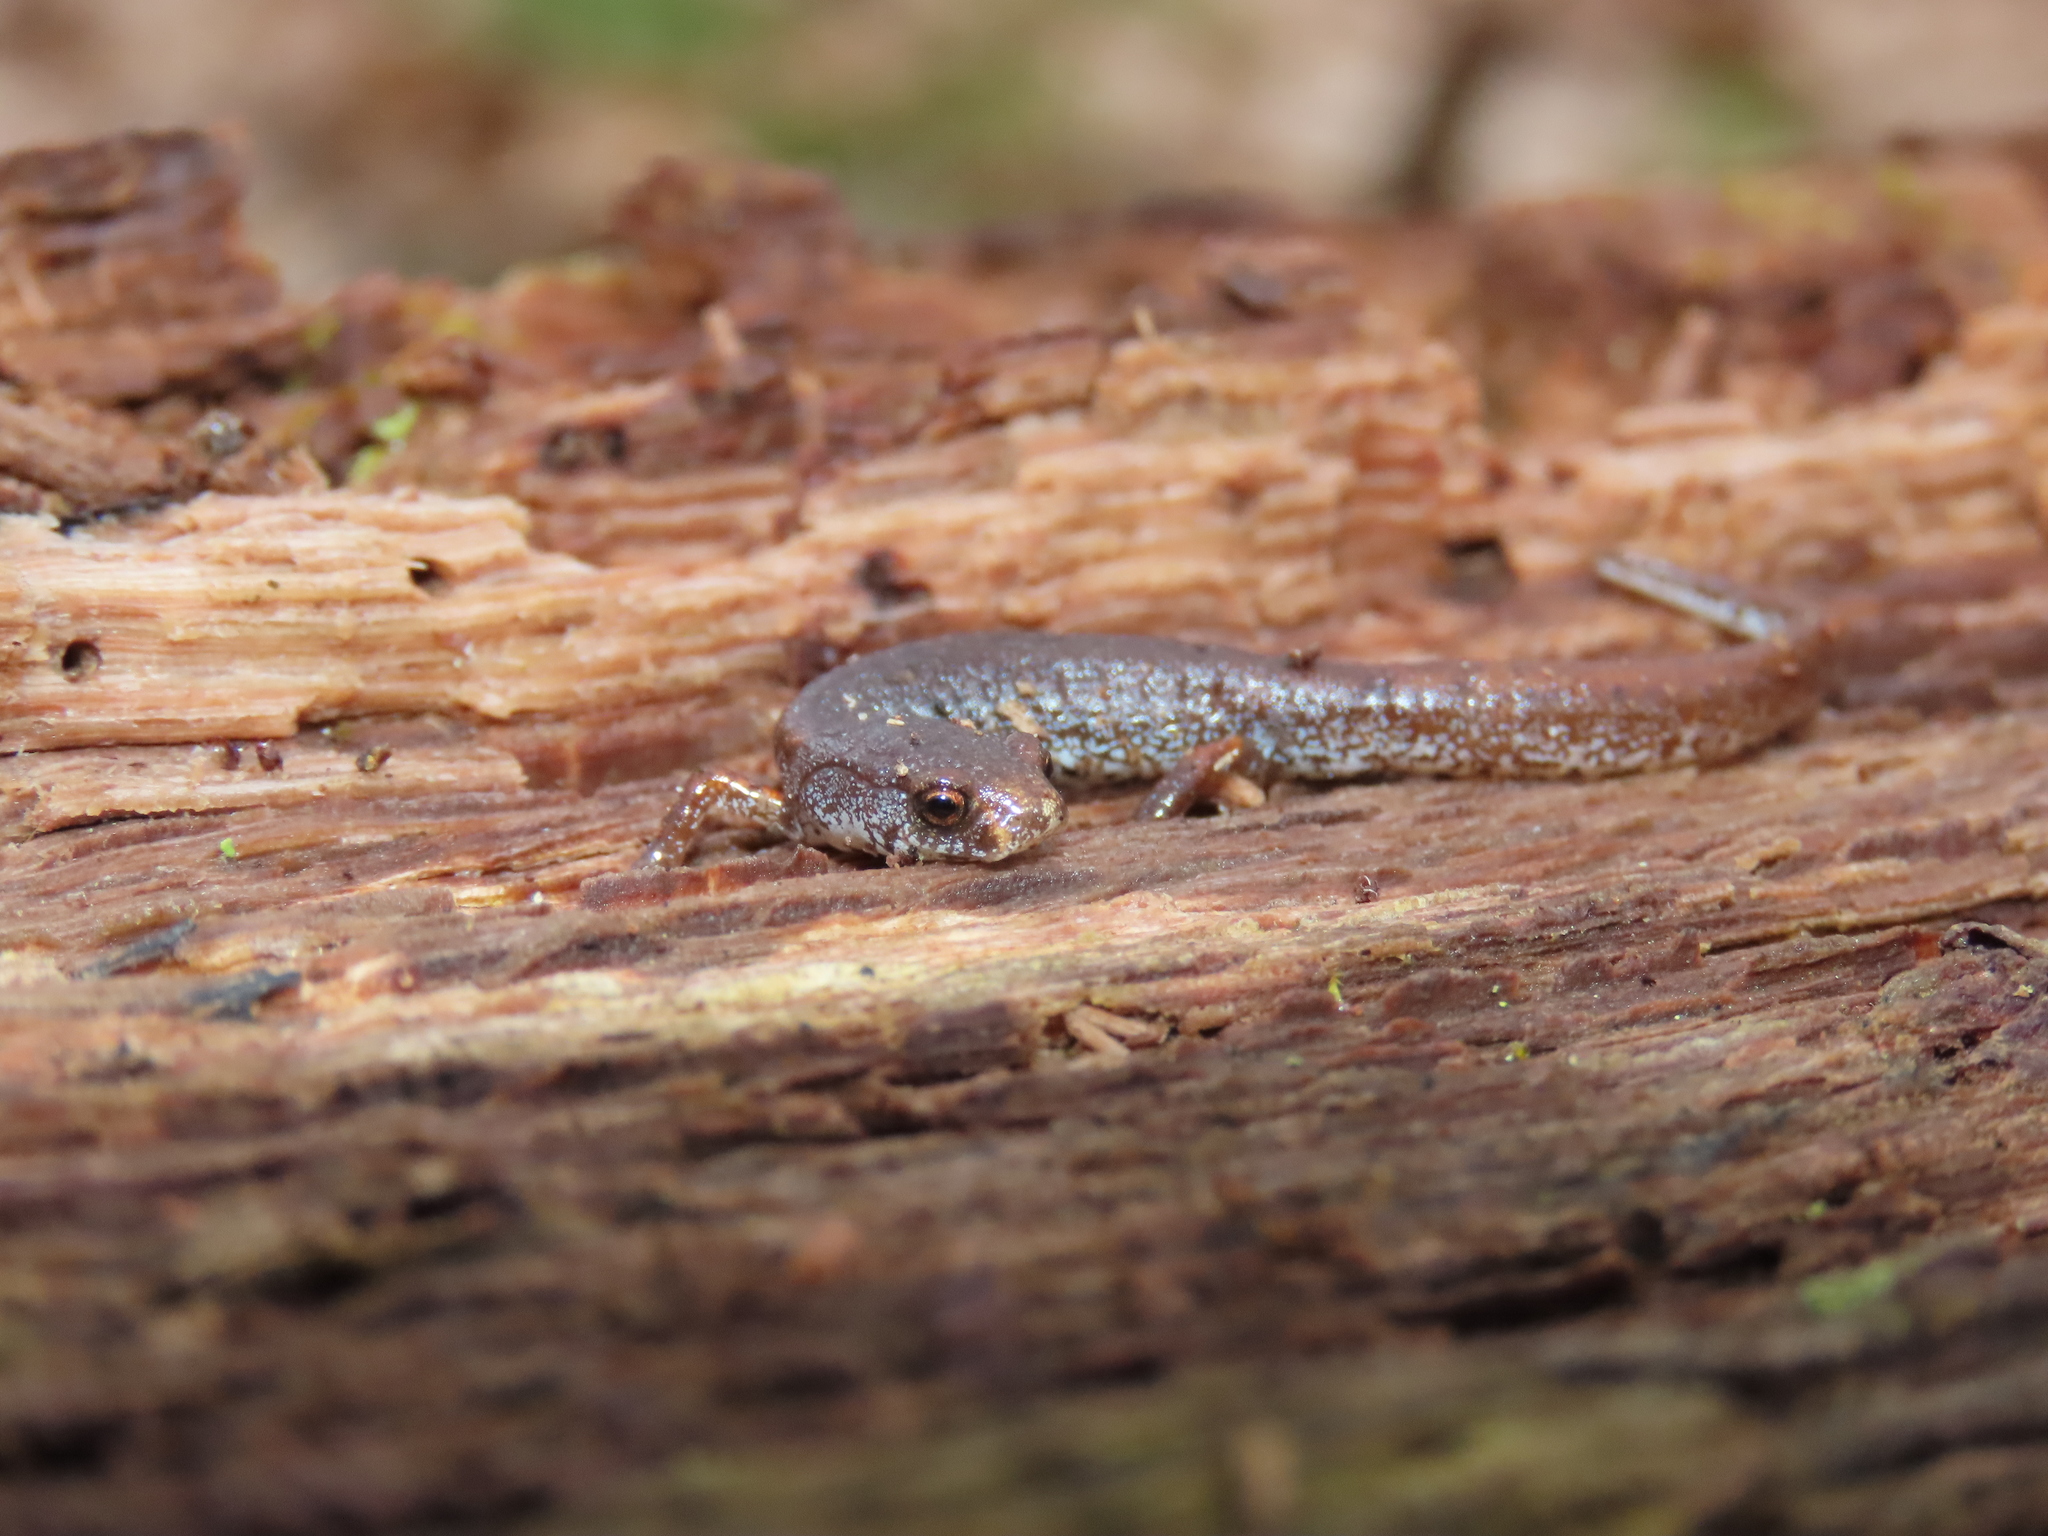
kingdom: Animalia
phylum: Chordata
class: Amphibia
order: Caudata
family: Plethodontidae
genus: Hemidactylium
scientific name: Hemidactylium scutatum
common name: Four-toed salamander
